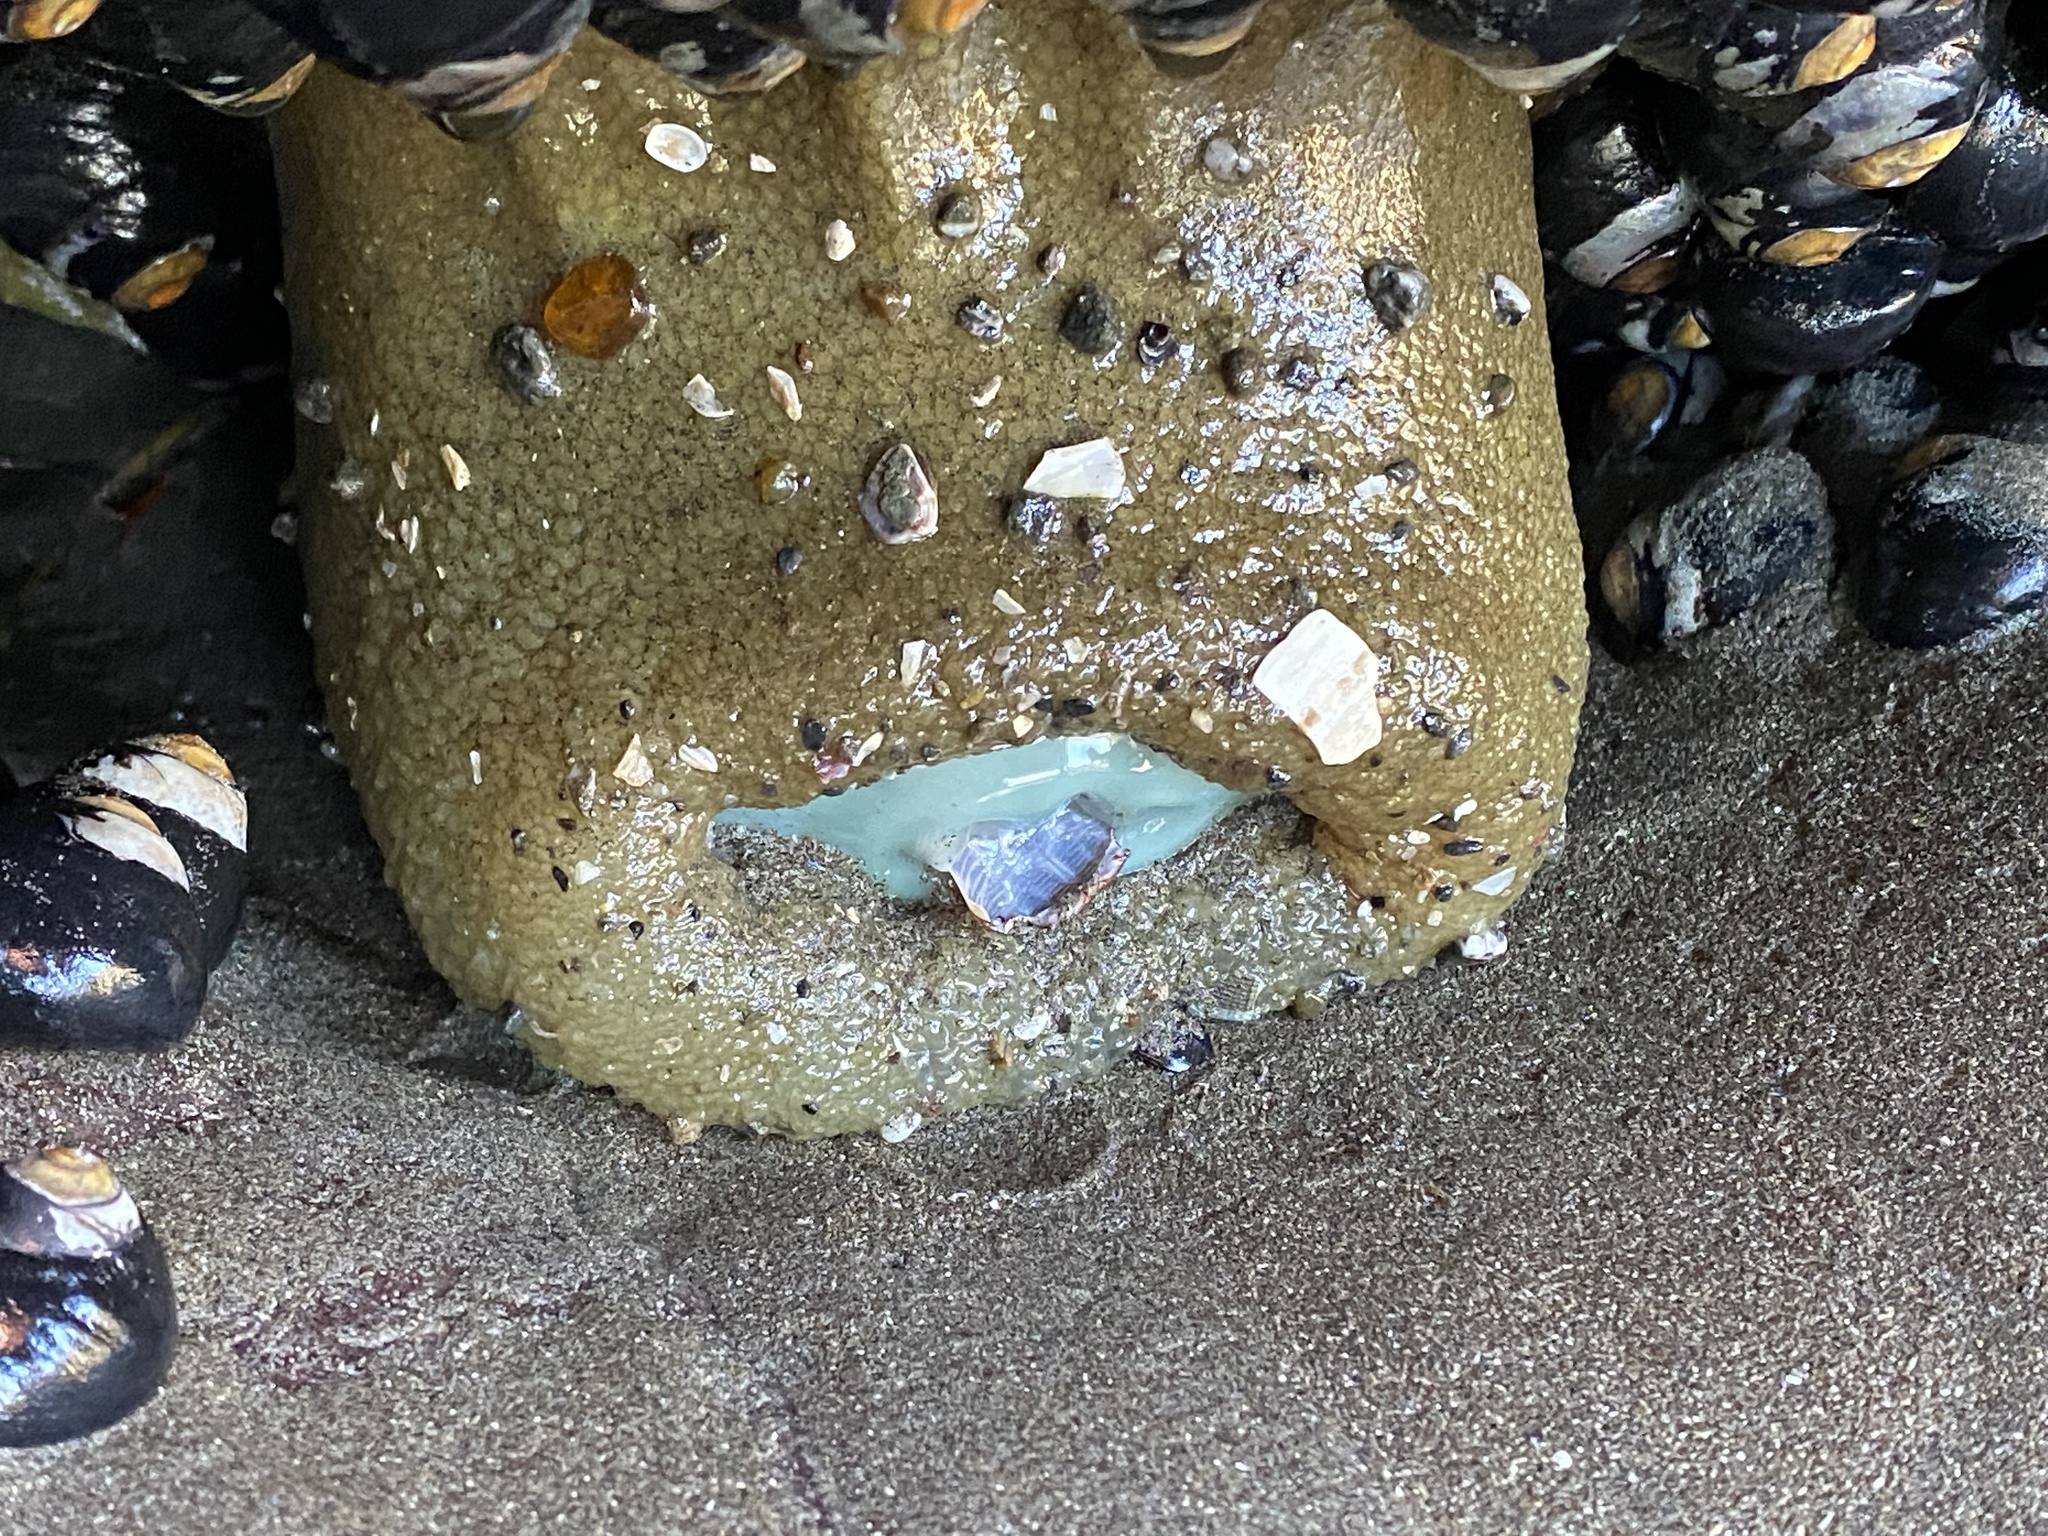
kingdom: Animalia
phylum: Cnidaria
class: Anthozoa
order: Actiniaria
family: Actiniidae
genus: Anthopleura
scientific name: Anthopleura xanthogrammica
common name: Giant green anemone
